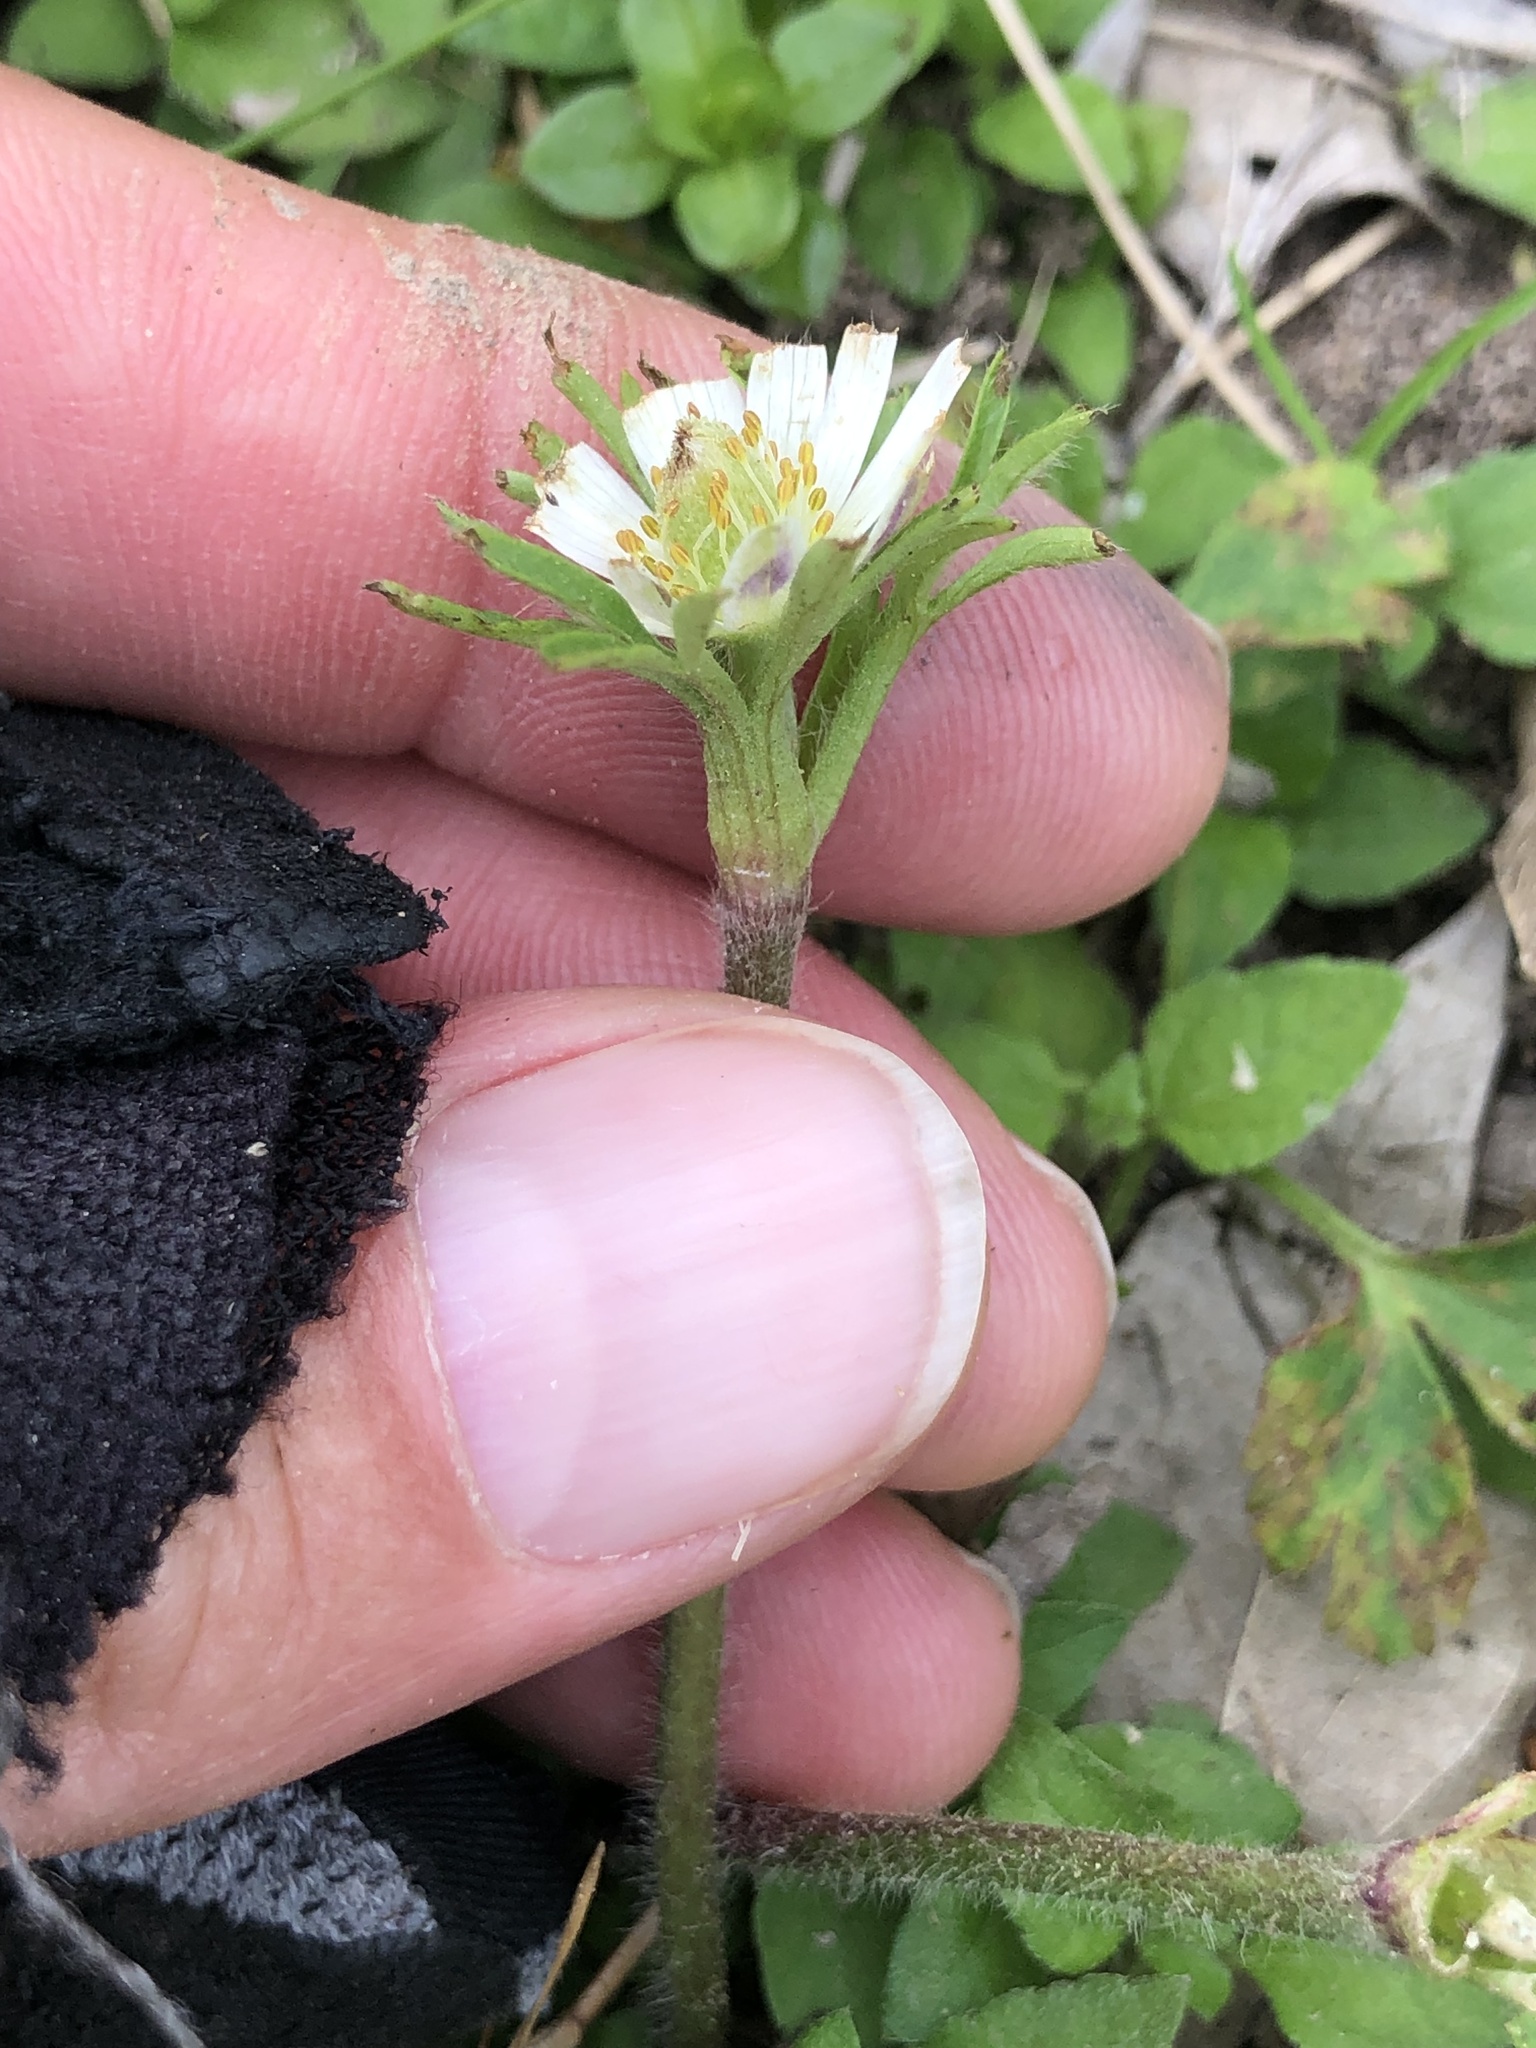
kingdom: Plantae
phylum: Tracheophyta
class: Magnoliopsida
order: Ranunculales
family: Ranunculaceae
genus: Anemone
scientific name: Anemone berlandieri
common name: Ten-petal anemone
